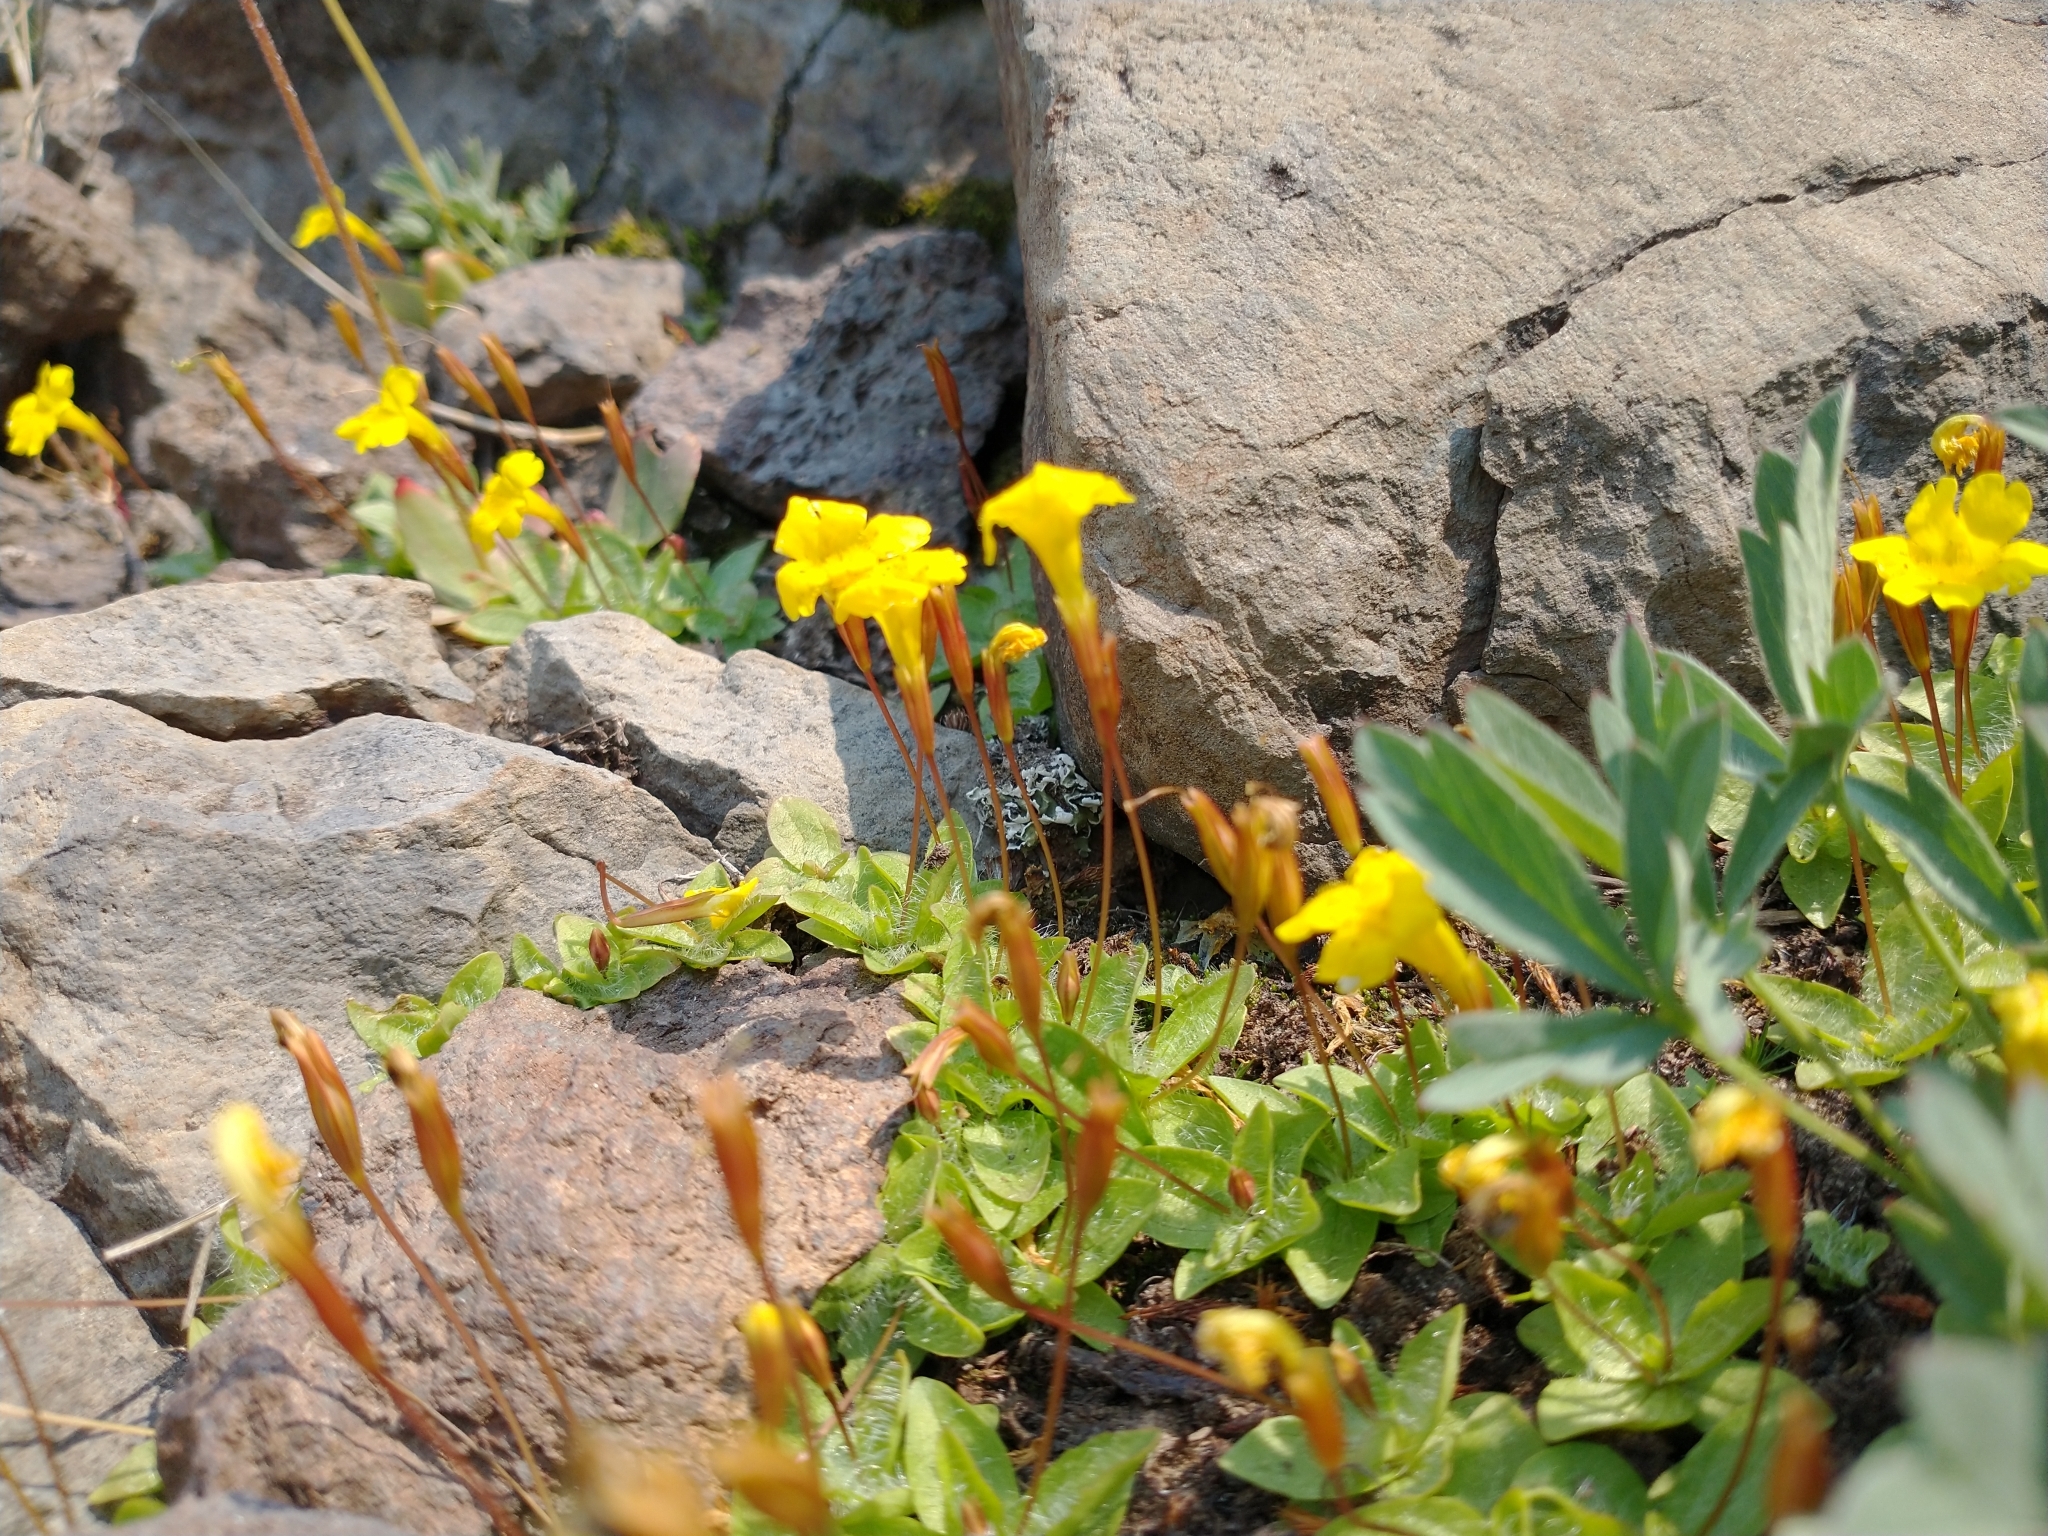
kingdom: Plantae
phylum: Tracheophyta
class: Magnoliopsida
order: Lamiales
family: Phrymaceae
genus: Erythranthe
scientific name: Erythranthe primuloides
